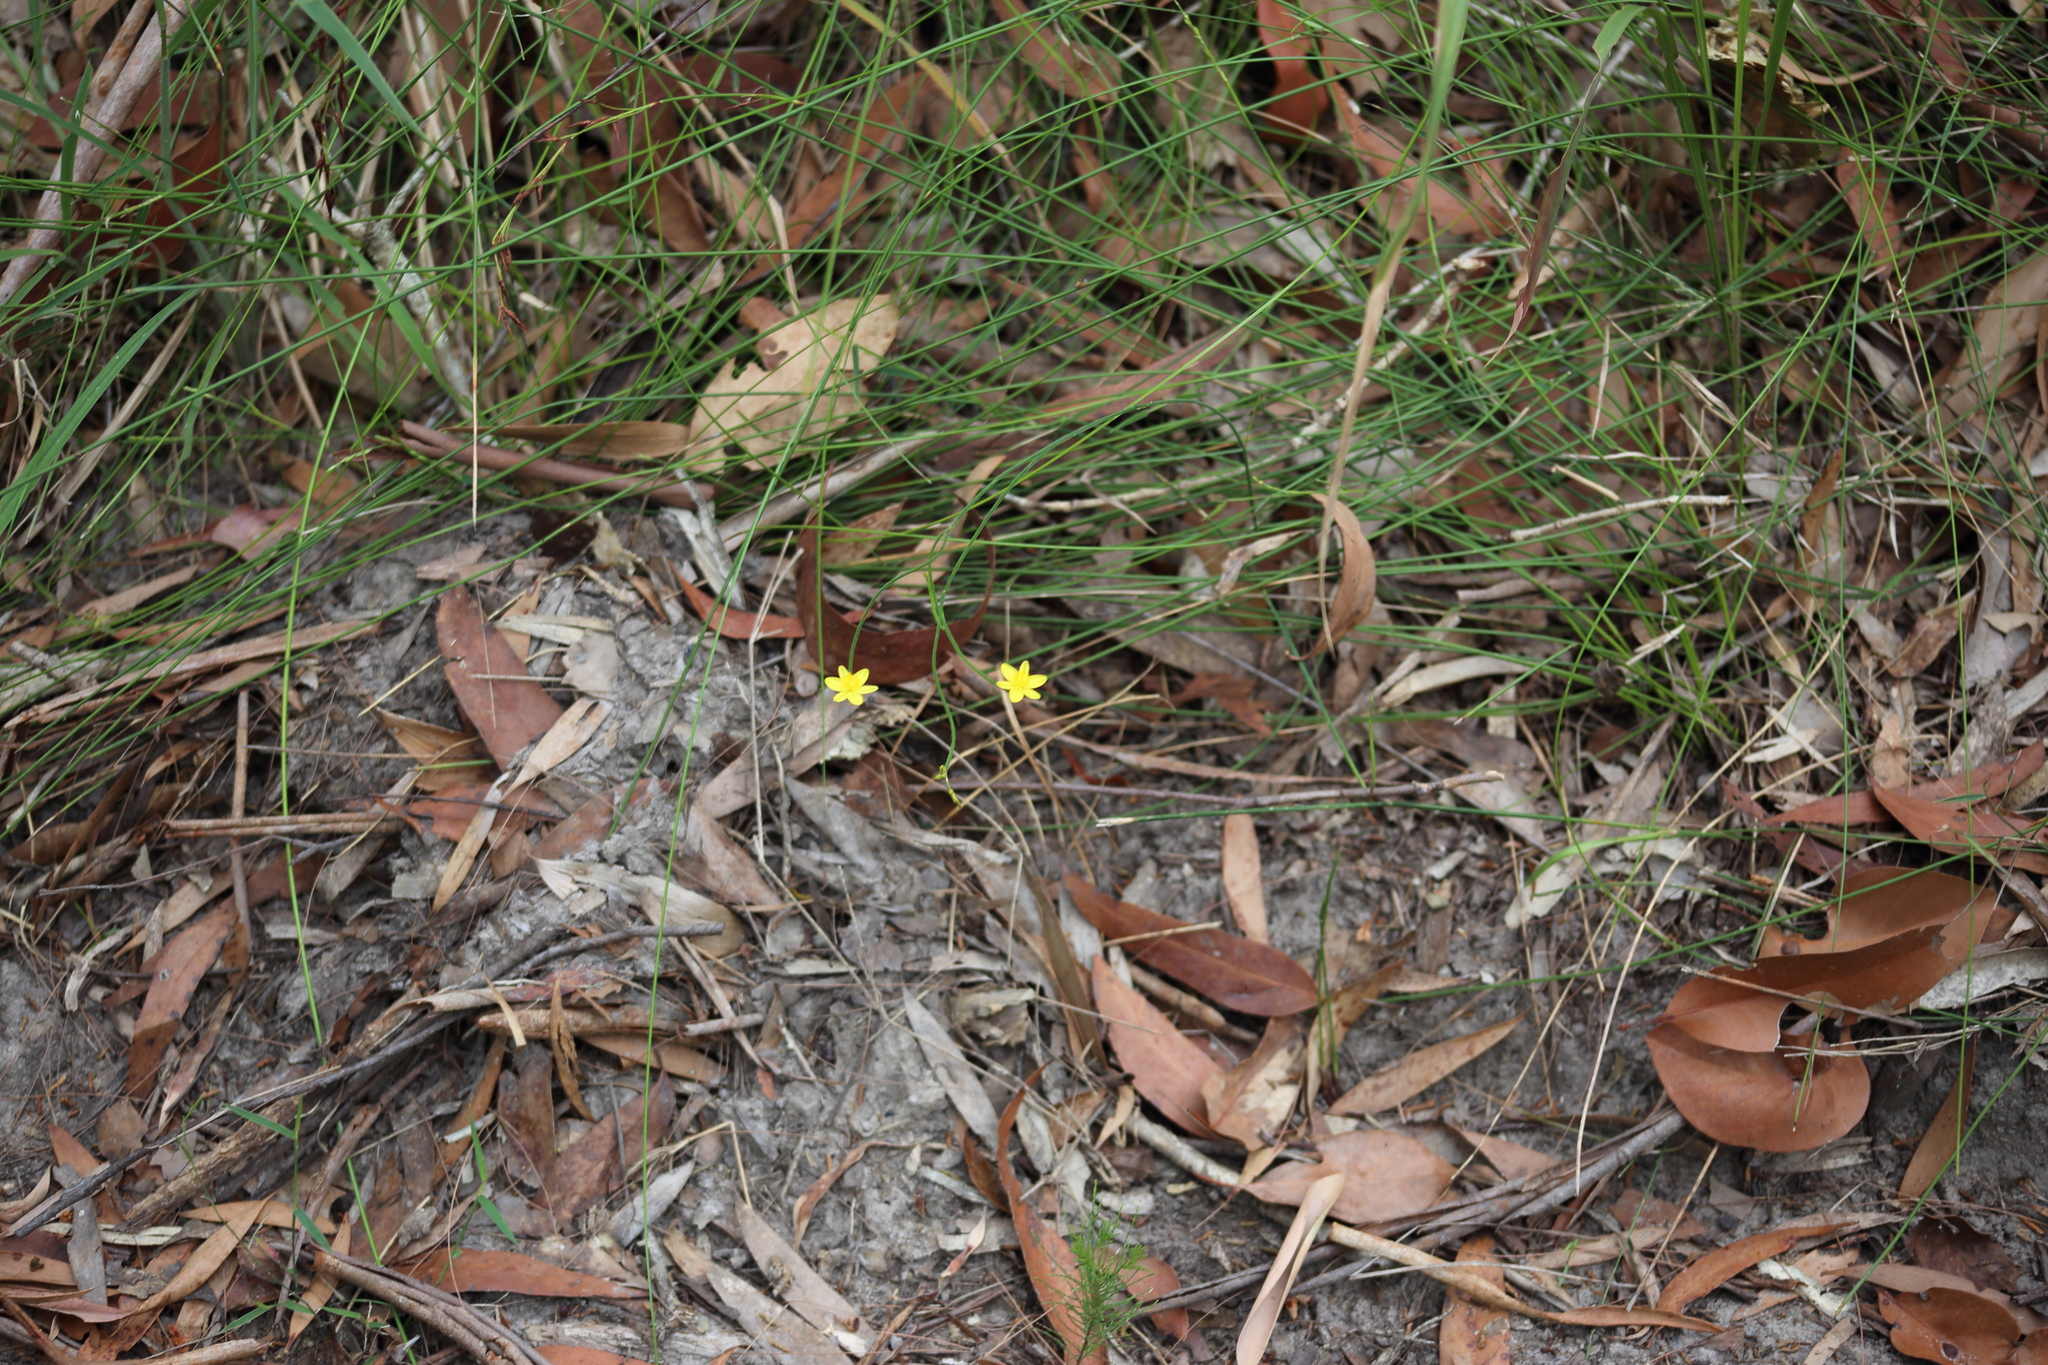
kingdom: Plantae
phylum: Tracheophyta
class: Liliopsida
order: Asparagales
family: Asphodelaceae
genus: Tricoryne
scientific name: Tricoryne elatior
